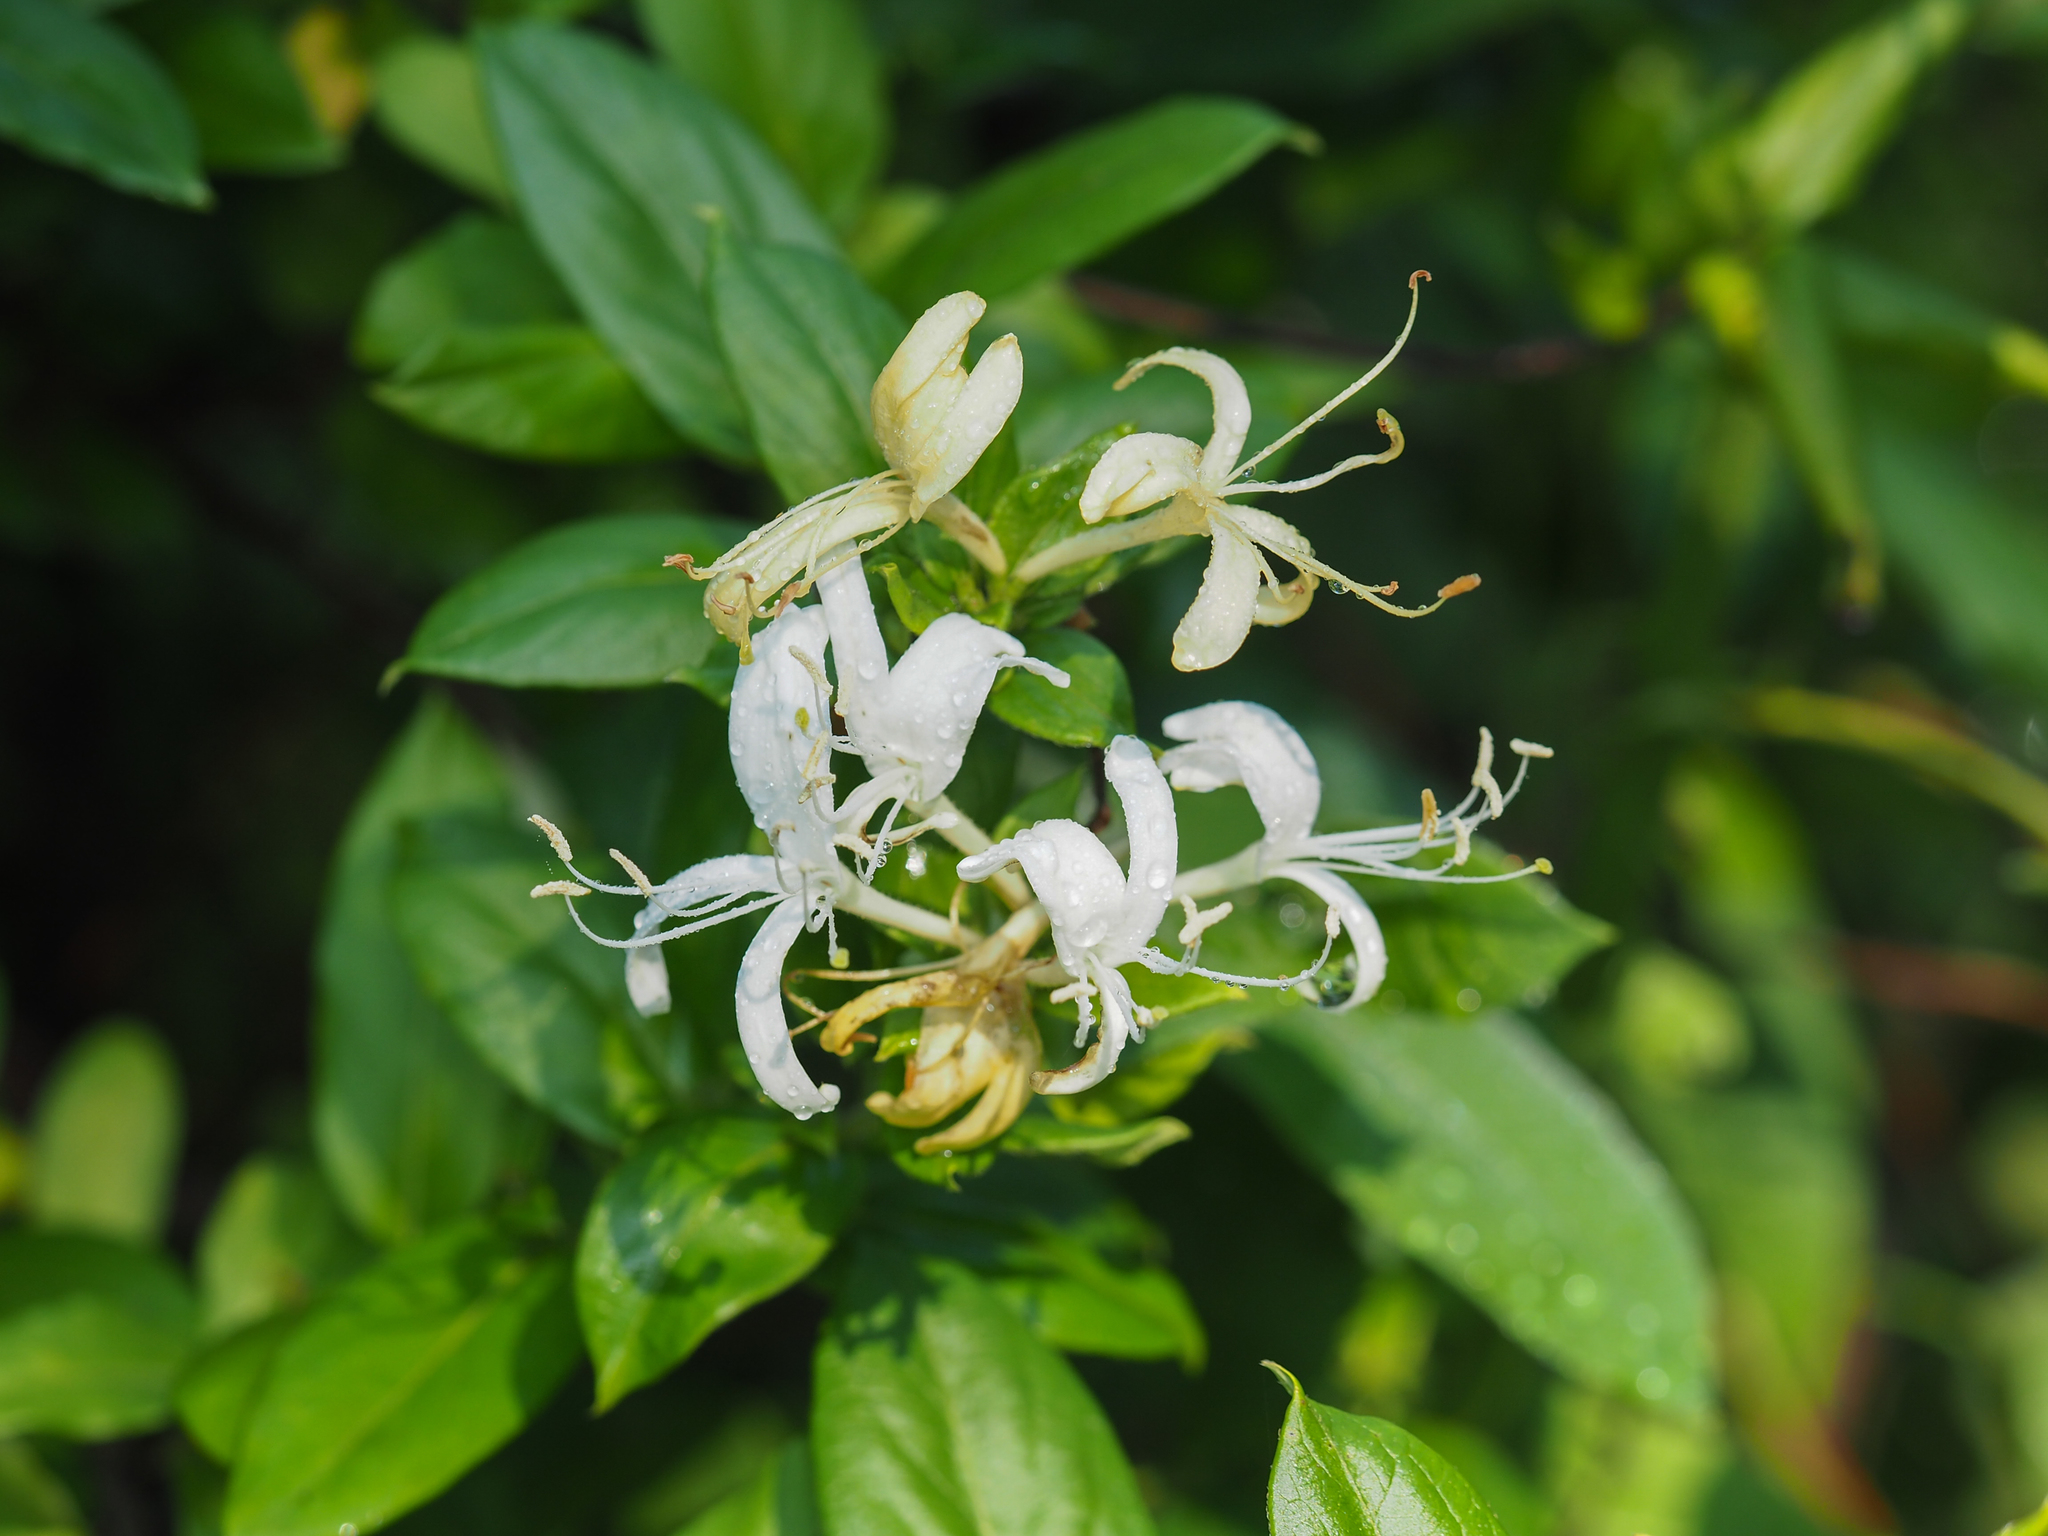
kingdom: Plantae
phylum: Tracheophyta
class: Magnoliopsida
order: Dipsacales
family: Caprifoliaceae
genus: Lonicera
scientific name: Lonicera japonica
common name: Japanese honeysuckle
